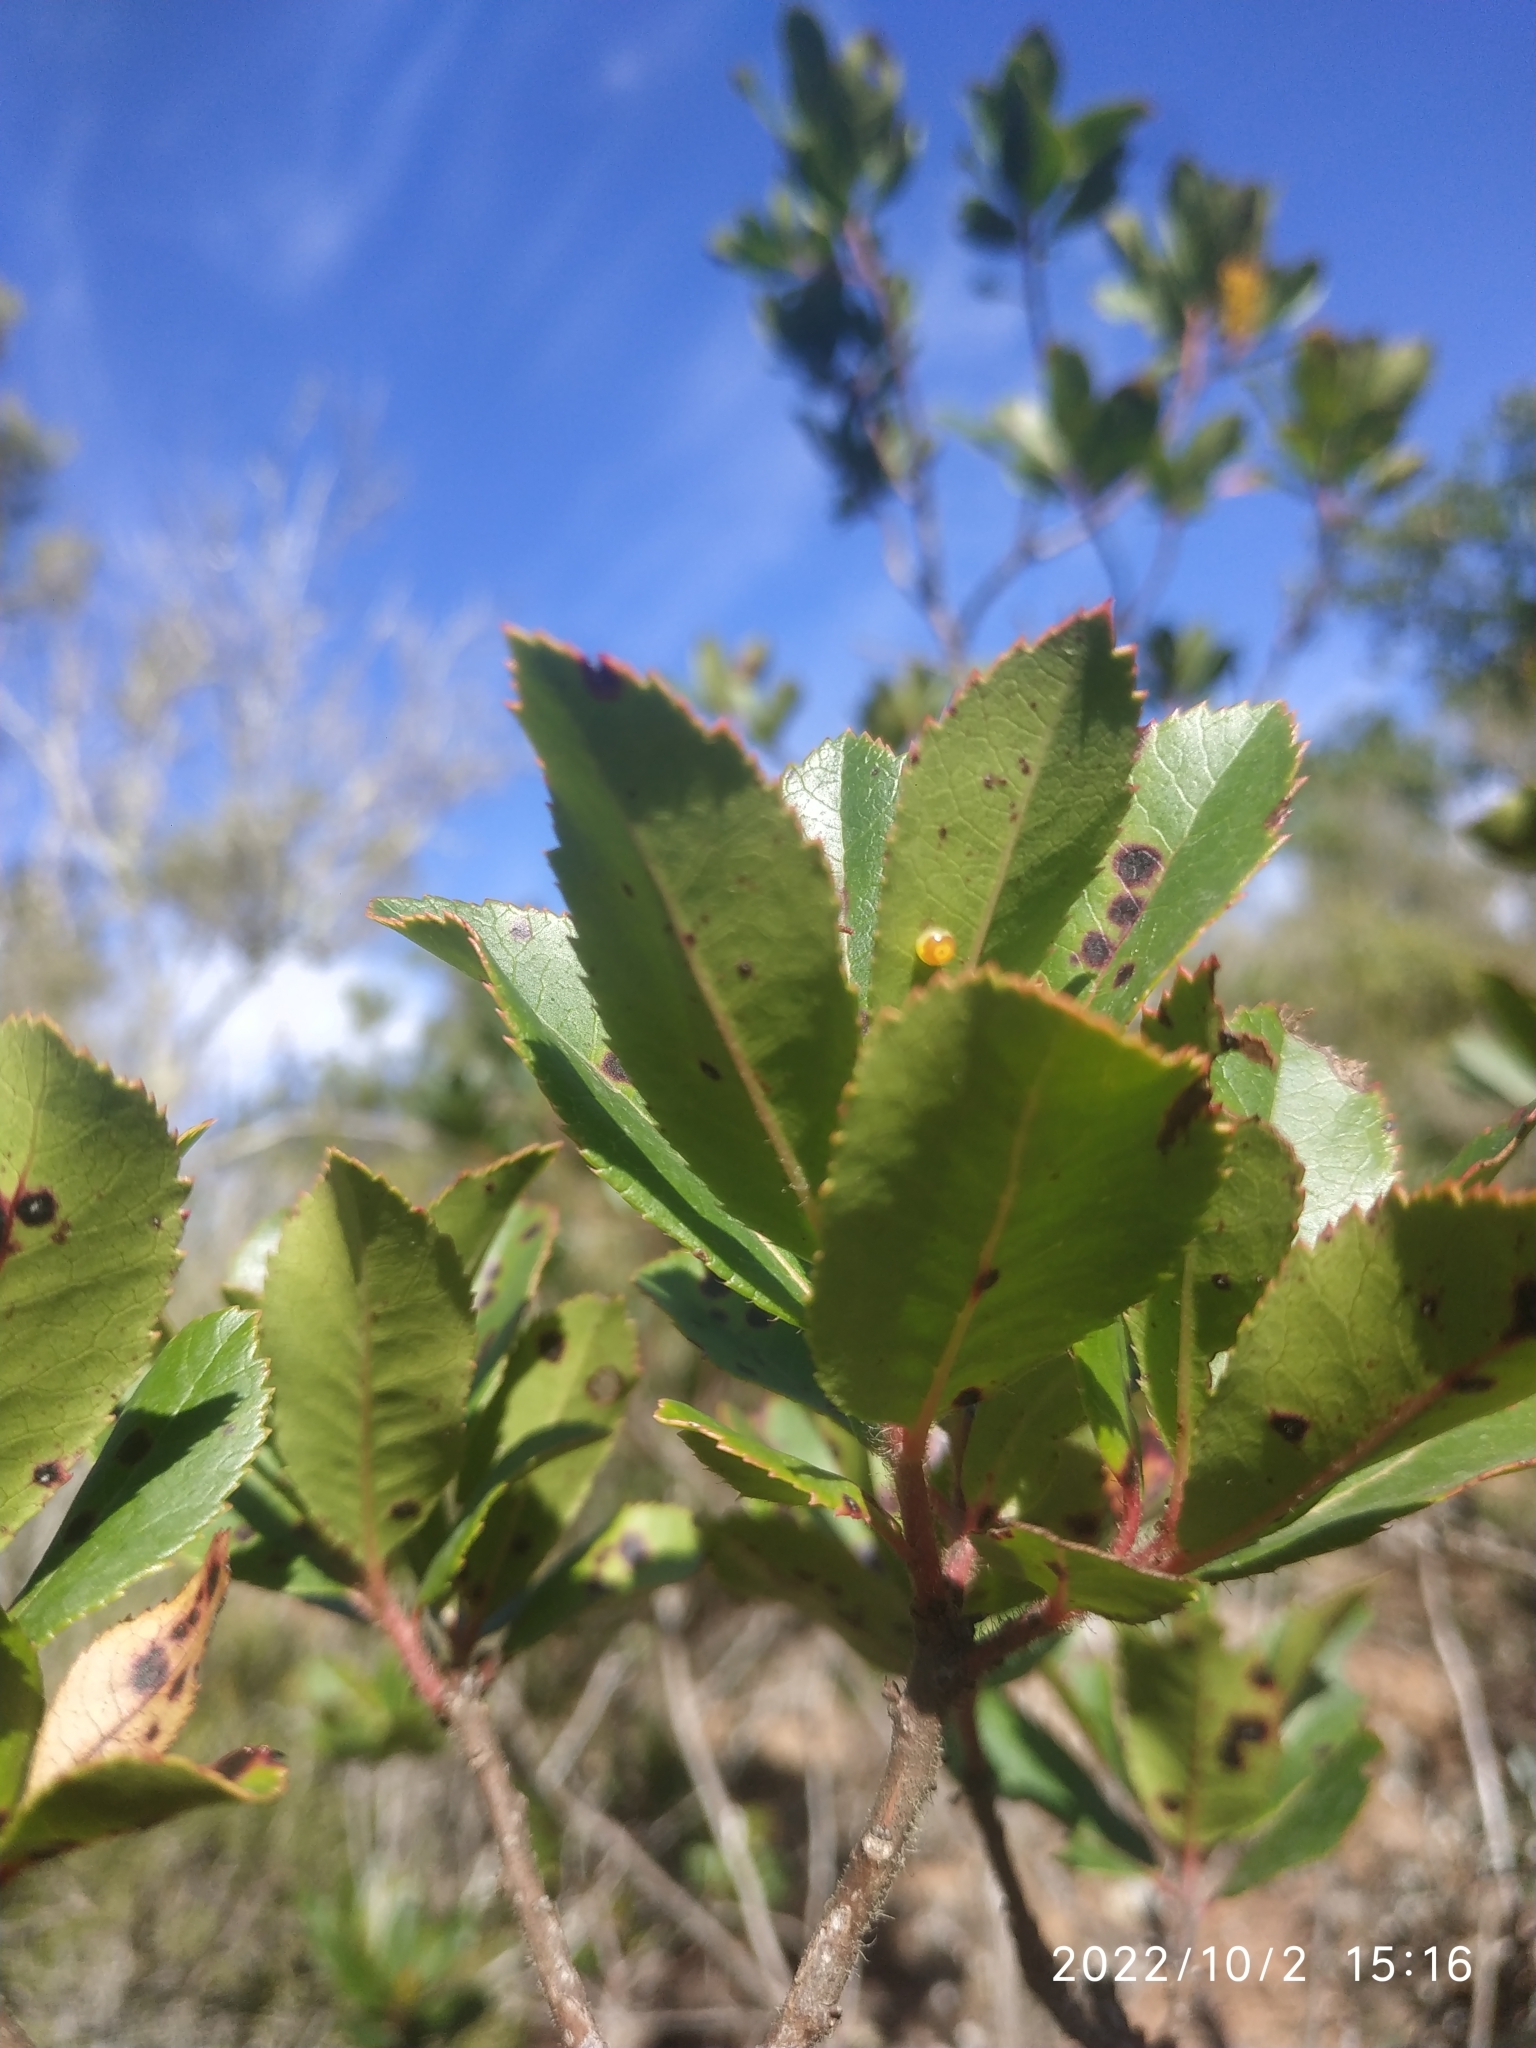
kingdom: Animalia
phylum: Arthropoda
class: Insecta
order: Lepidoptera
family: Nymphalidae
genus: Charaxes
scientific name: Charaxes jasius
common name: Two tailed pasha
